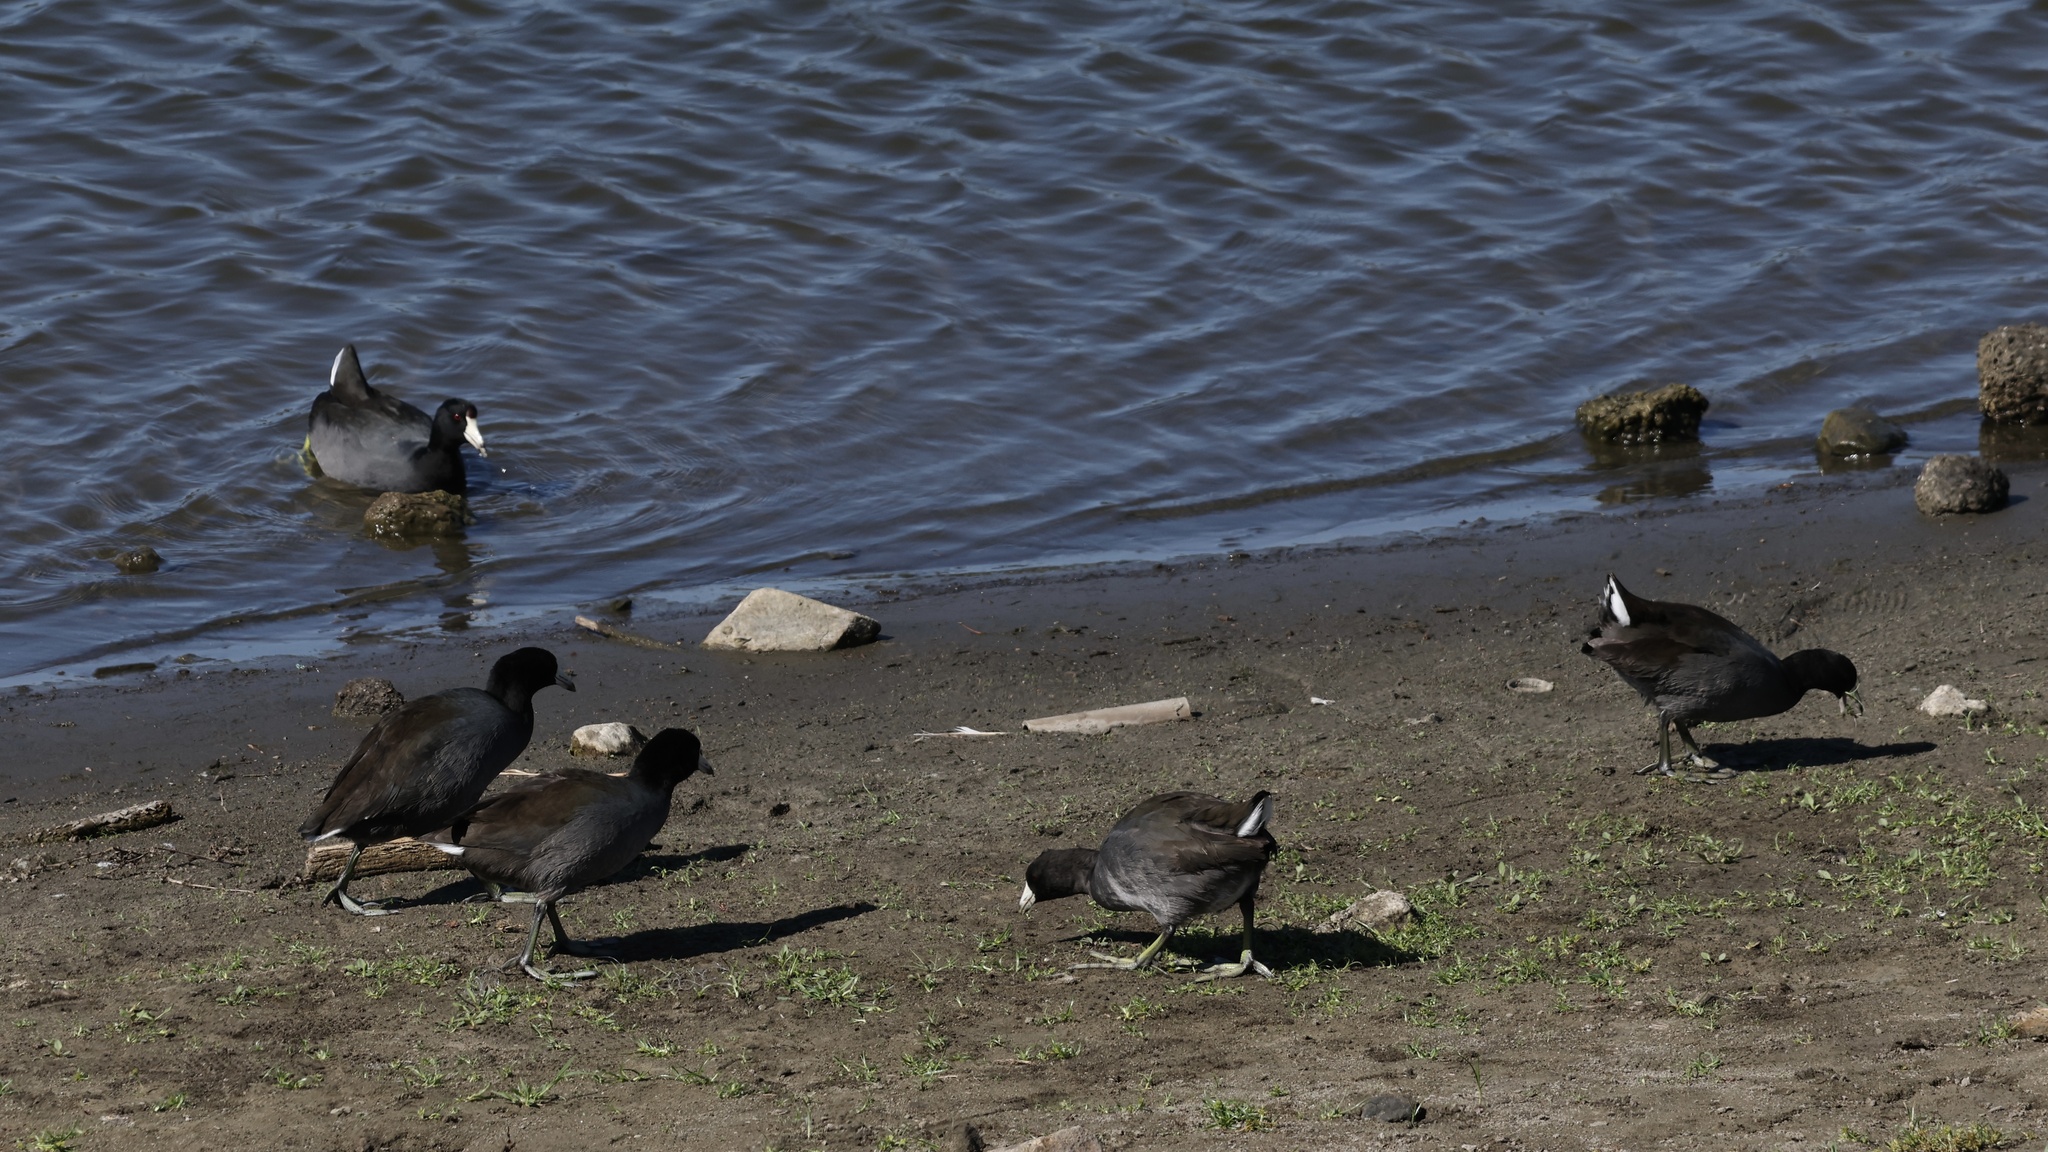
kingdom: Animalia
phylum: Chordata
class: Aves
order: Gruiformes
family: Rallidae
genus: Fulica
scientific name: Fulica americana
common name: American coot
